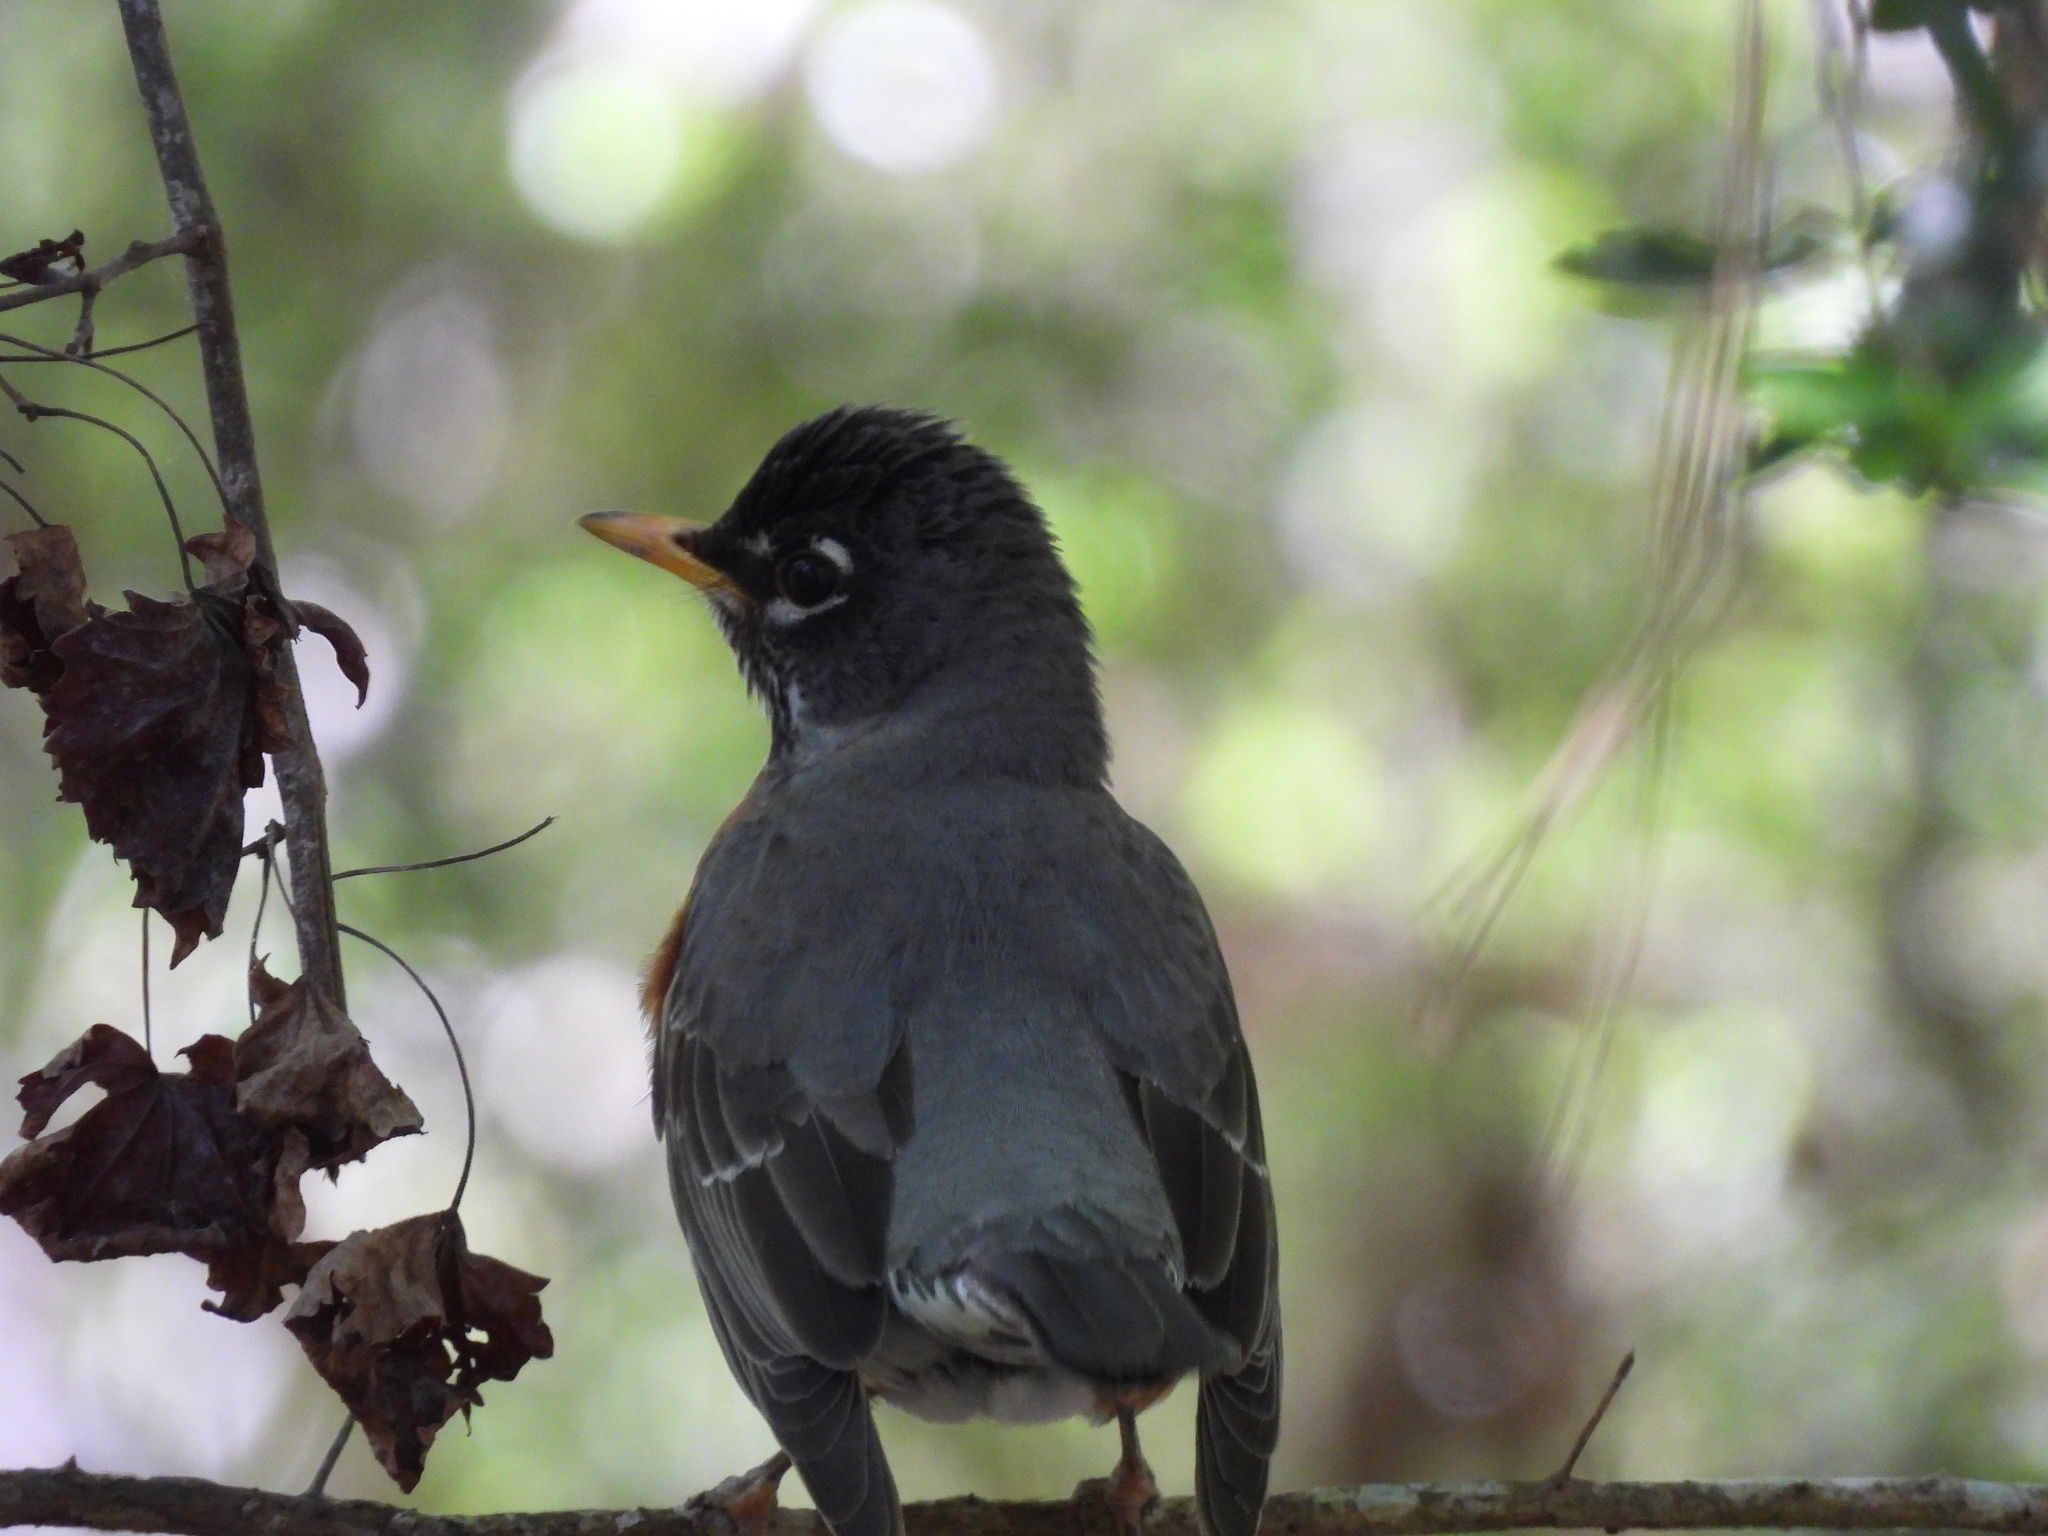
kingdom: Animalia
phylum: Chordata
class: Aves
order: Passeriformes
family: Turdidae
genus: Turdus
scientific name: Turdus migratorius
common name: American robin
